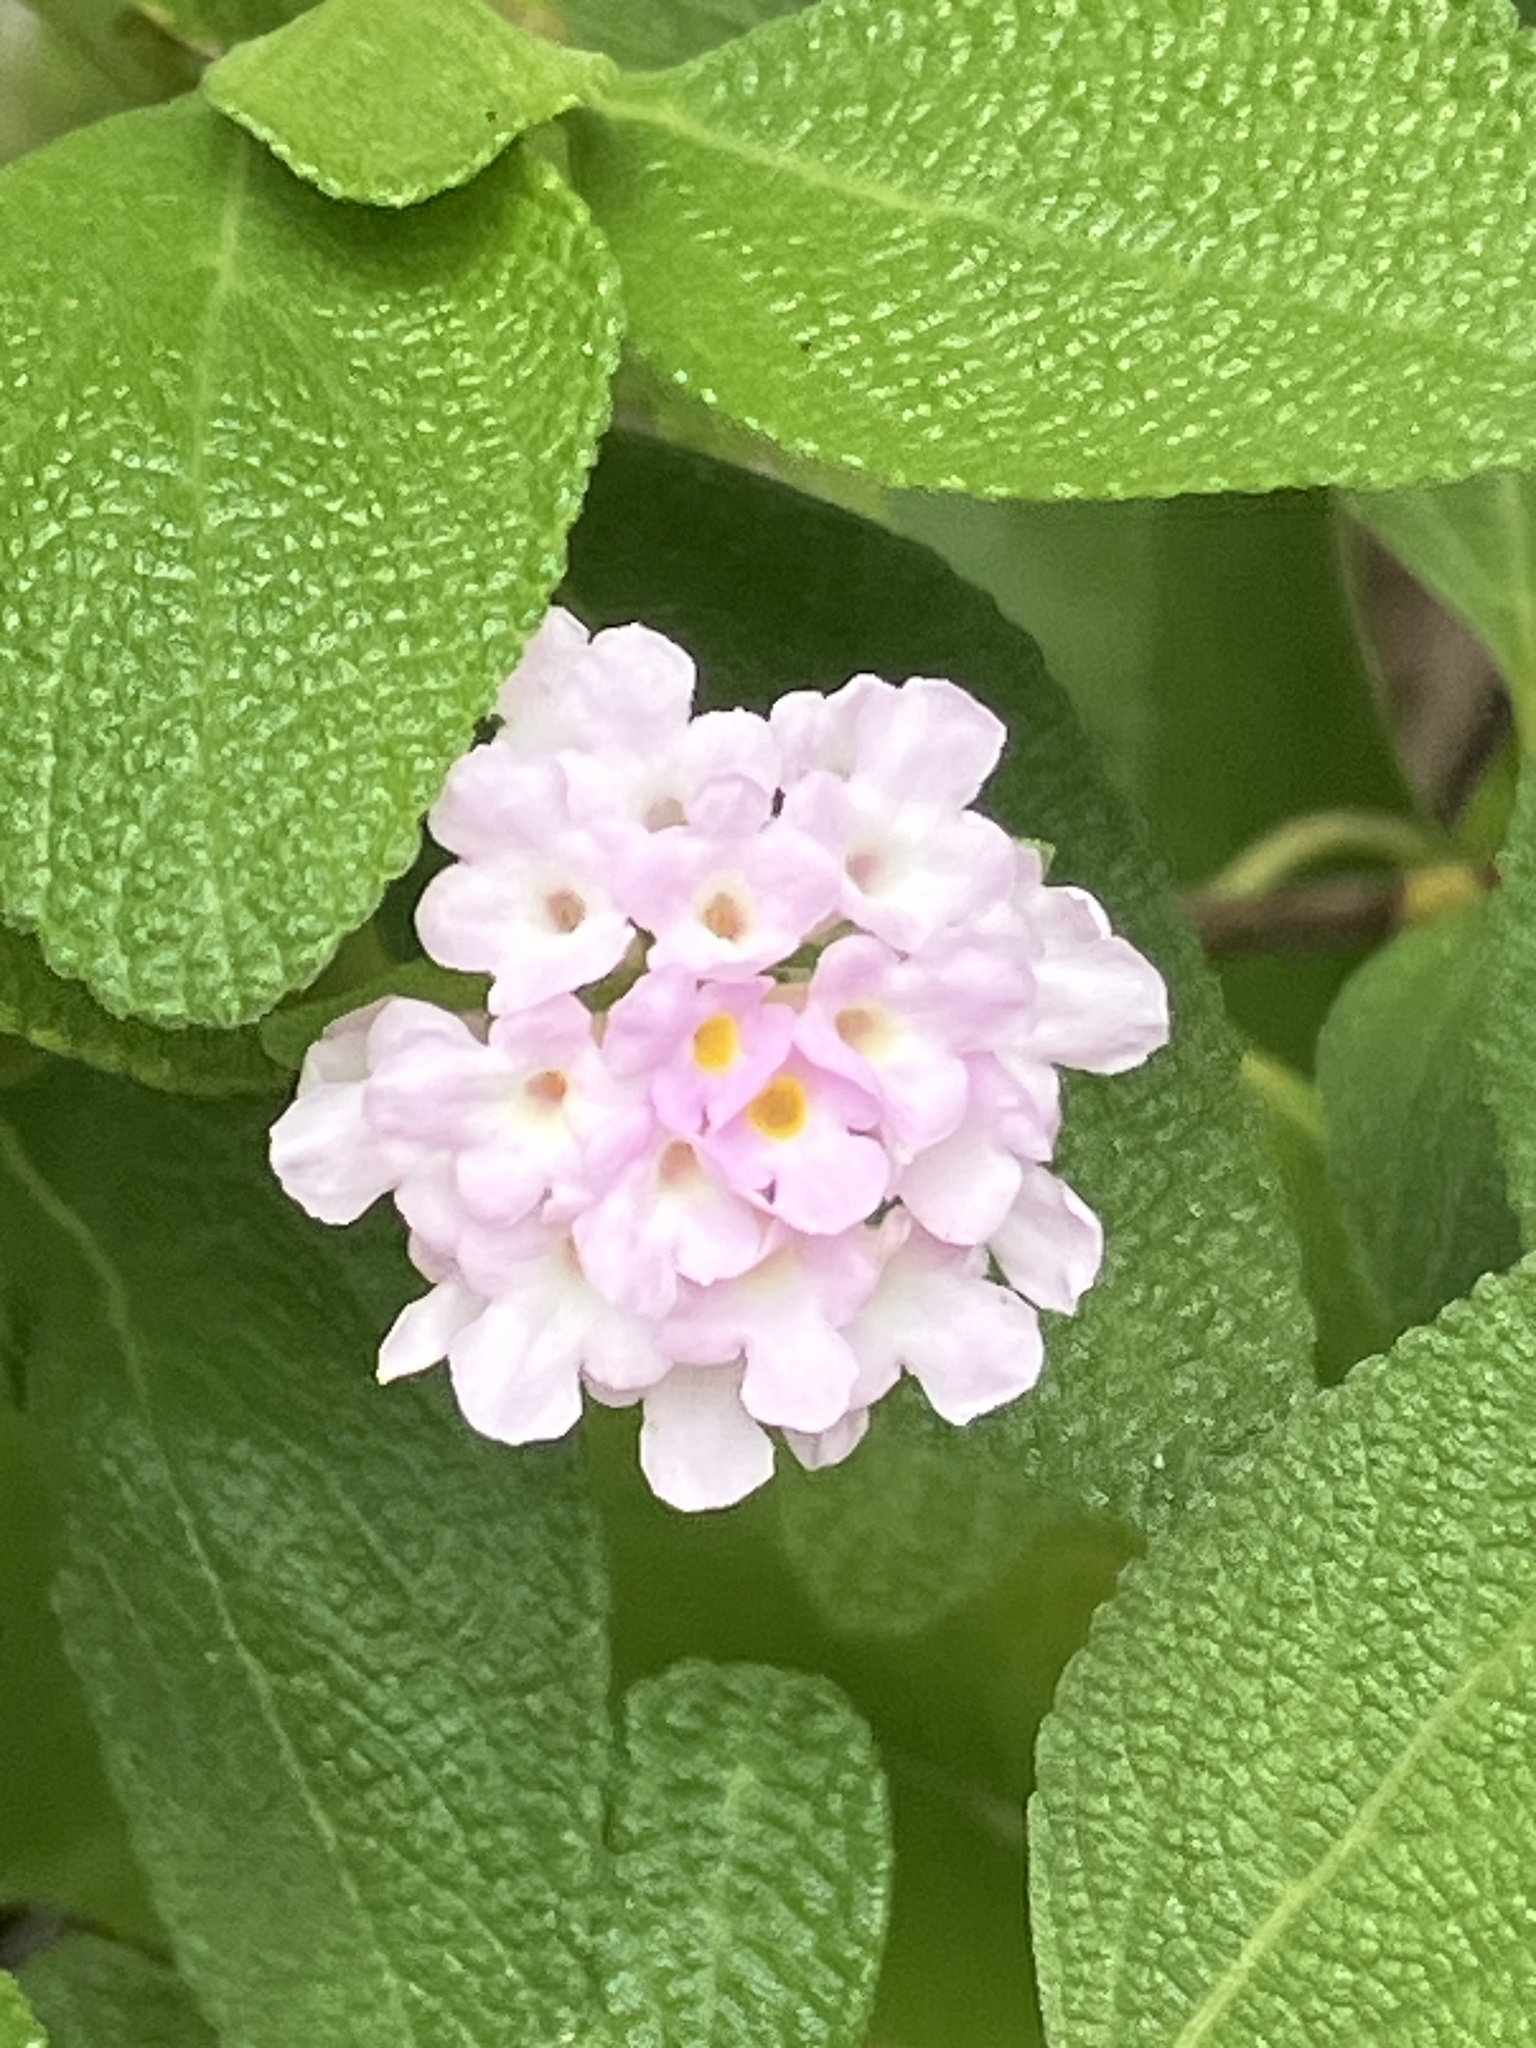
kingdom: Plantae
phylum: Tracheophyta
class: Magnoliopsida
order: Lamiales
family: Verbenaceae
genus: Lantana
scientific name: Lantana involucrata
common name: Black sage
